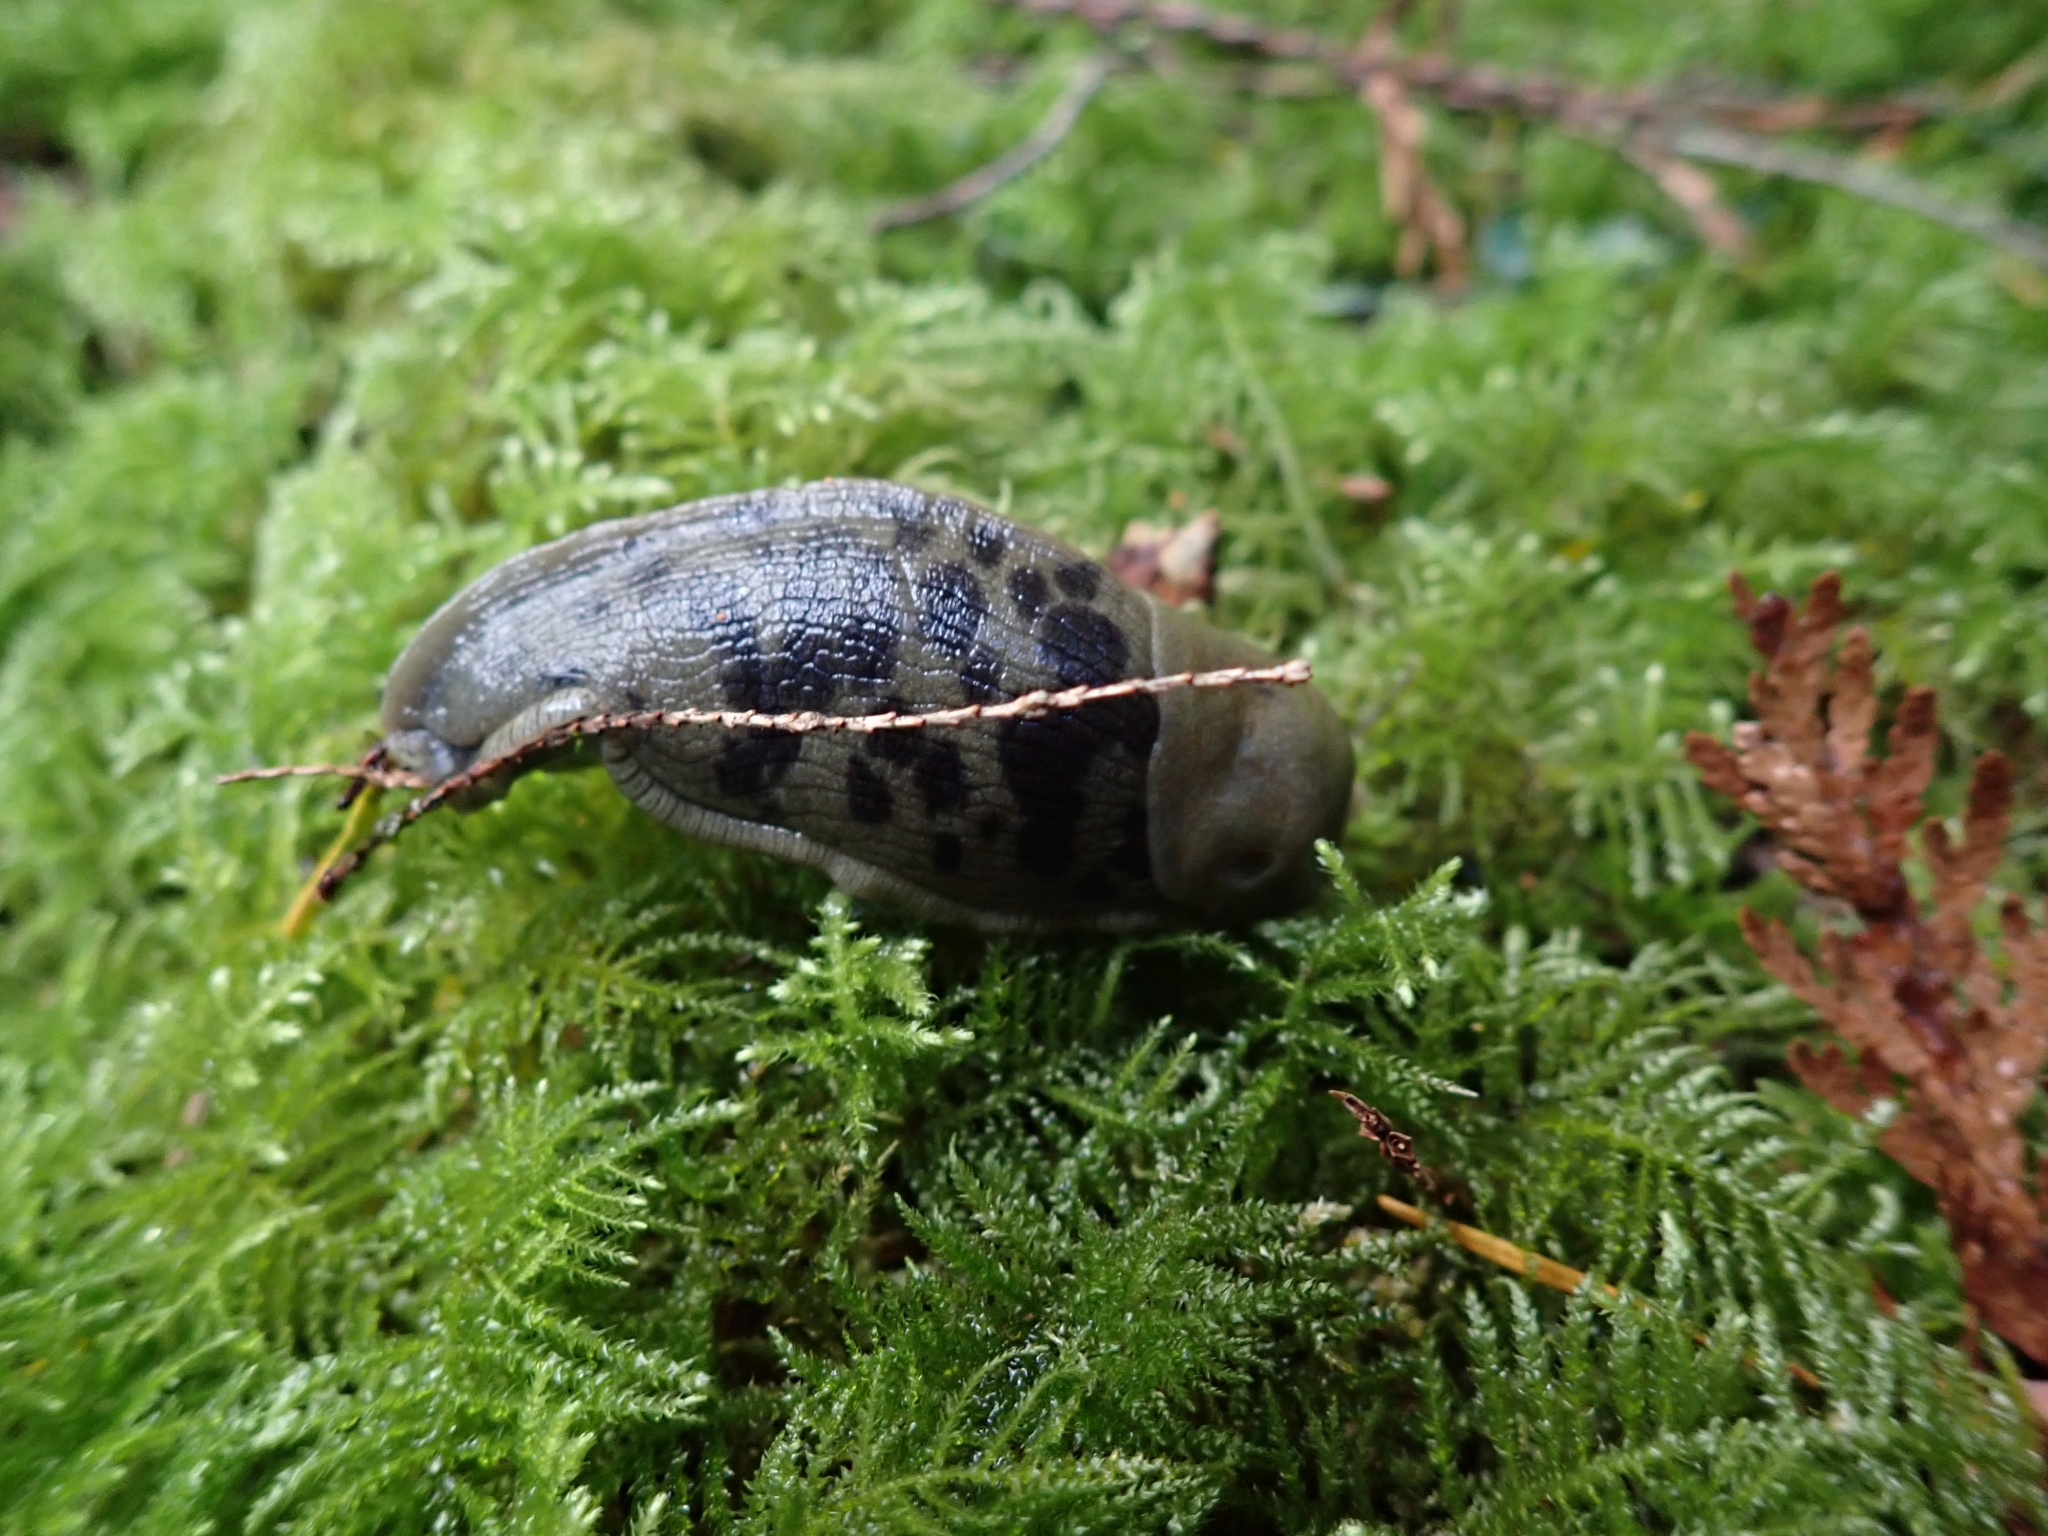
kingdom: Animalia
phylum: Mollusca
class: Gastropoda
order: Stylommatophora
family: Ariolimacidae
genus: Ariolimax
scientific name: Ariolimax columbianus
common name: Pacific banana slug
